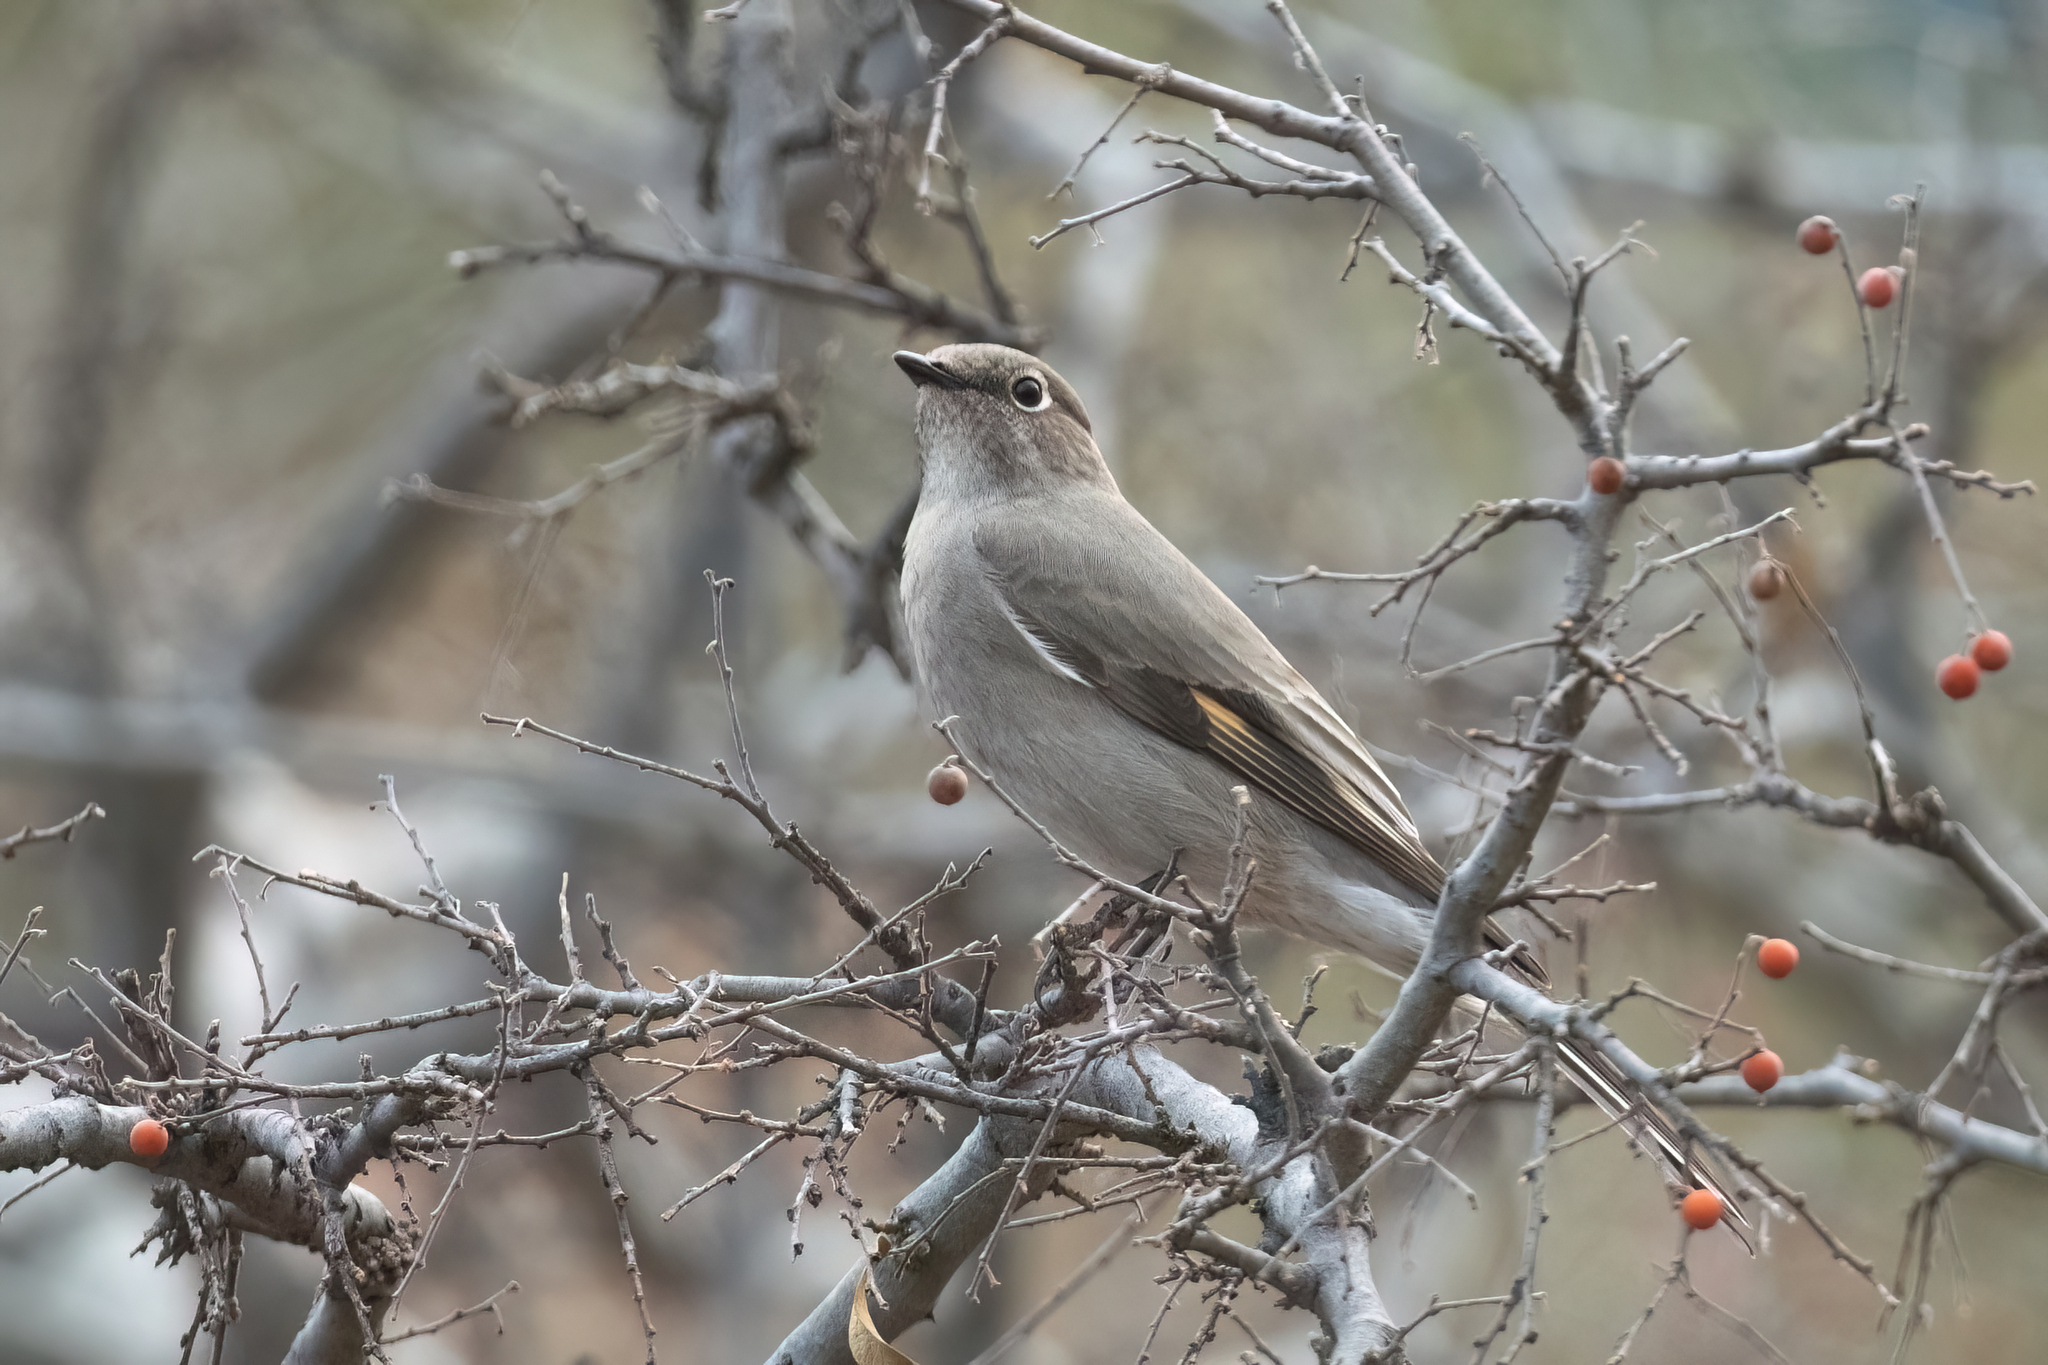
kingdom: Animalia
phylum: Chordata
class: Aves
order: Passeriformes
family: Turdidae
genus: Myadestes
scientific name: Myadestes townsendi
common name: Townsend's solitaire
